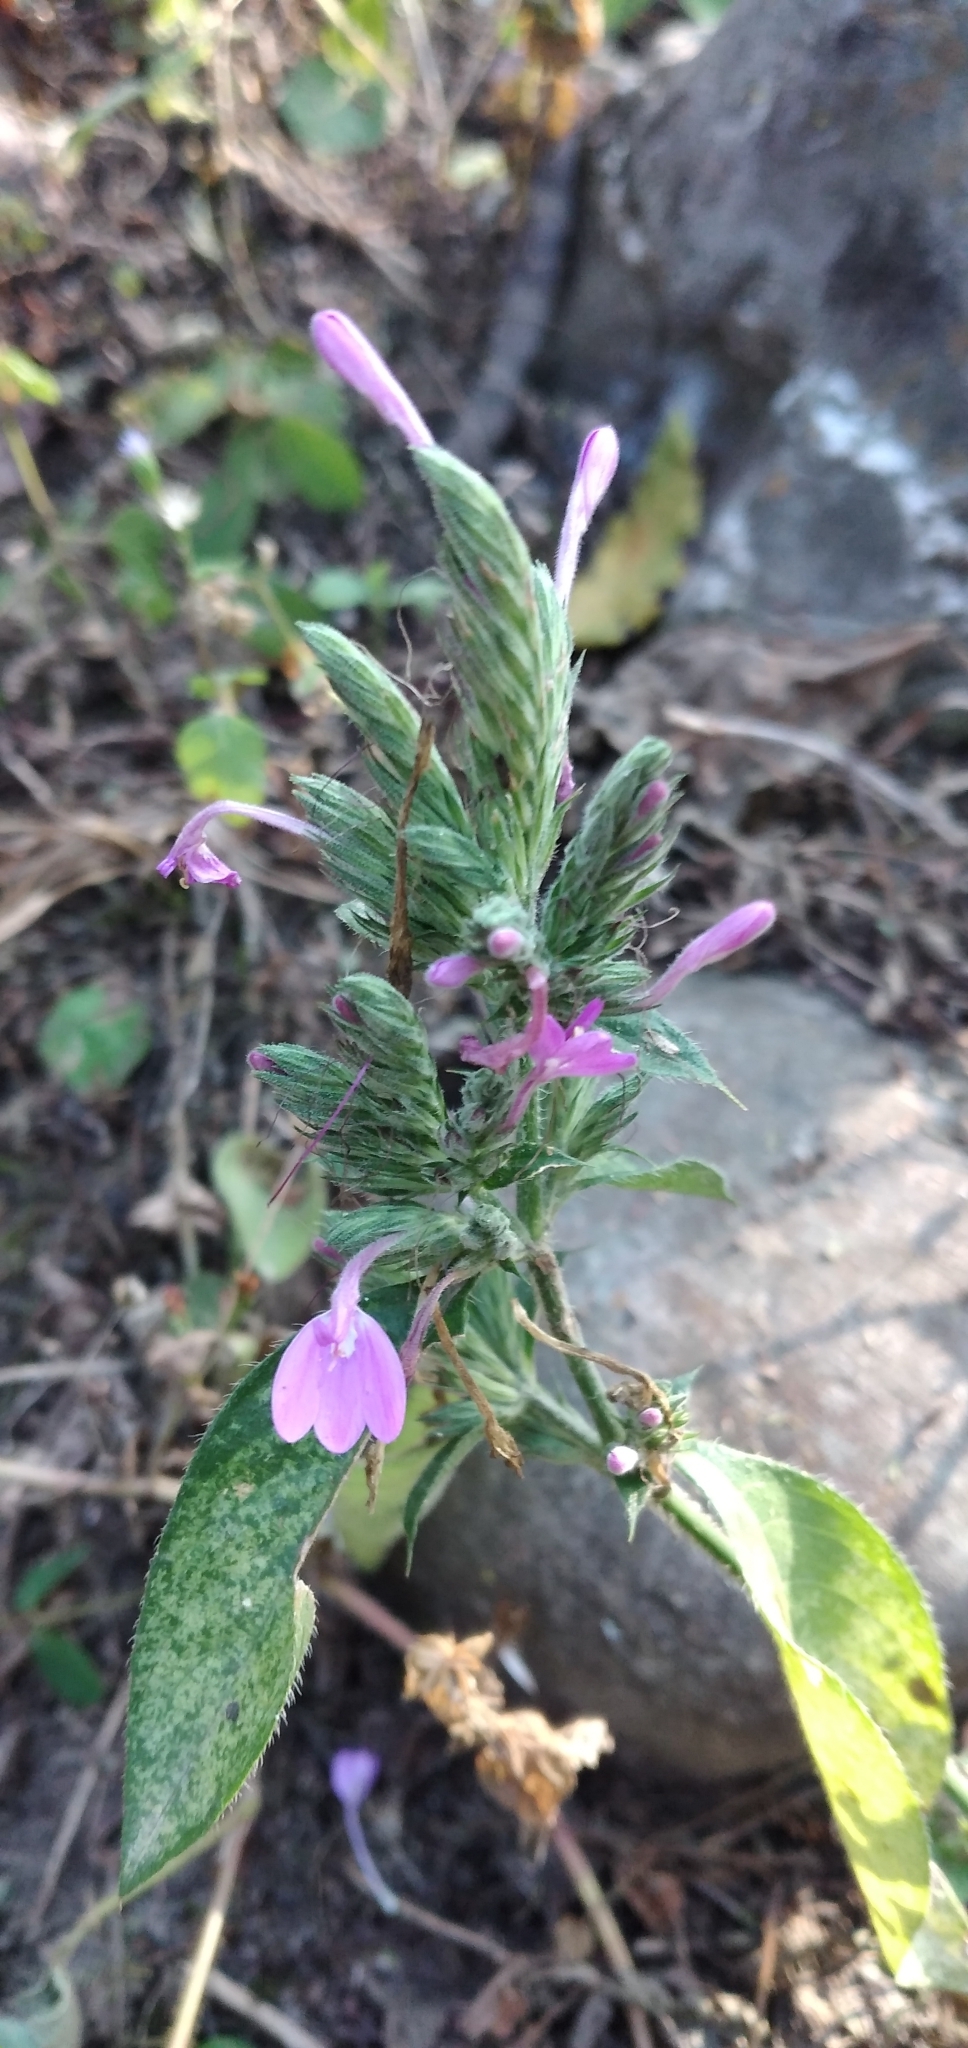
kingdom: Plantae
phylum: Tracheophyta
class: Magnoliopsida
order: Lamiales
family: Acanthaceae
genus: Justicia
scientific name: Justicia goudotii
